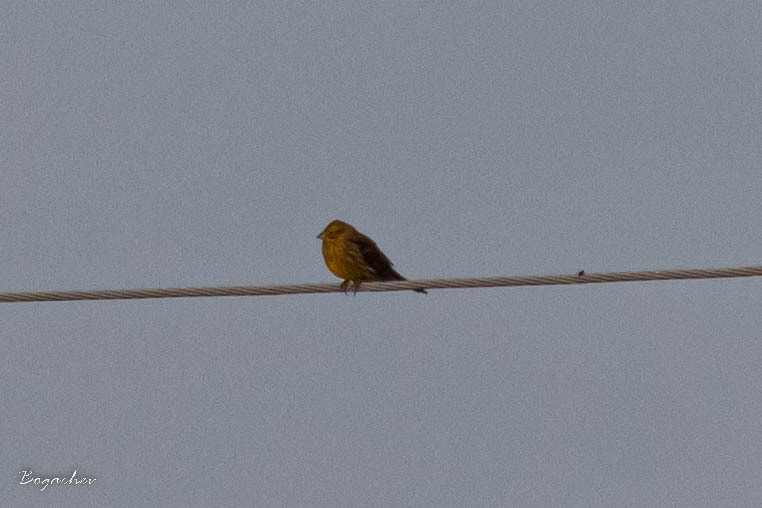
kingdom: Animalia
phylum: Chordata
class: Aves
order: Passeriformes
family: Emberizidae
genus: Emberiza
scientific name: Emberiza citrinella
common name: Yellowhammer
